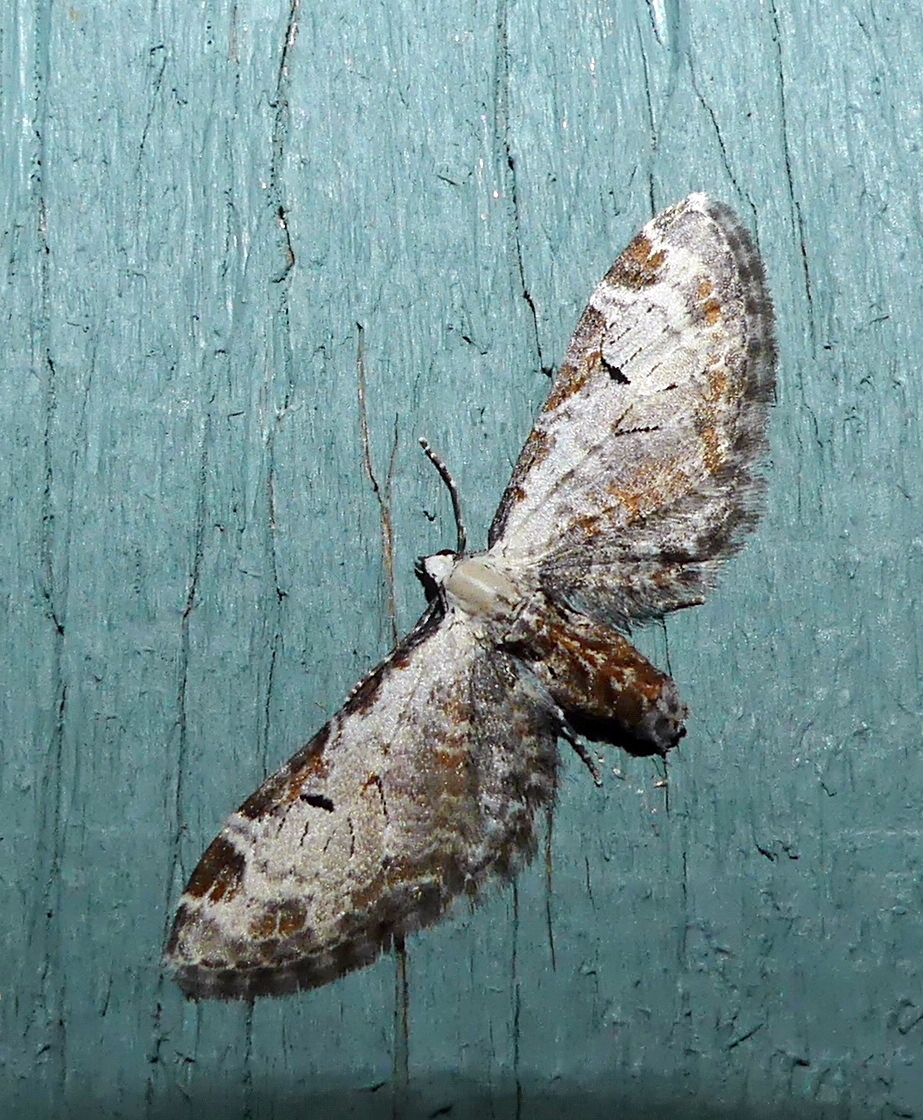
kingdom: Animalia
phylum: Arthropoda
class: Insecta
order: Lepidoptera
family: Geometridae
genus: Eupithecia
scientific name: Eupithecia ravocostaliata
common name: Great varigated pug
